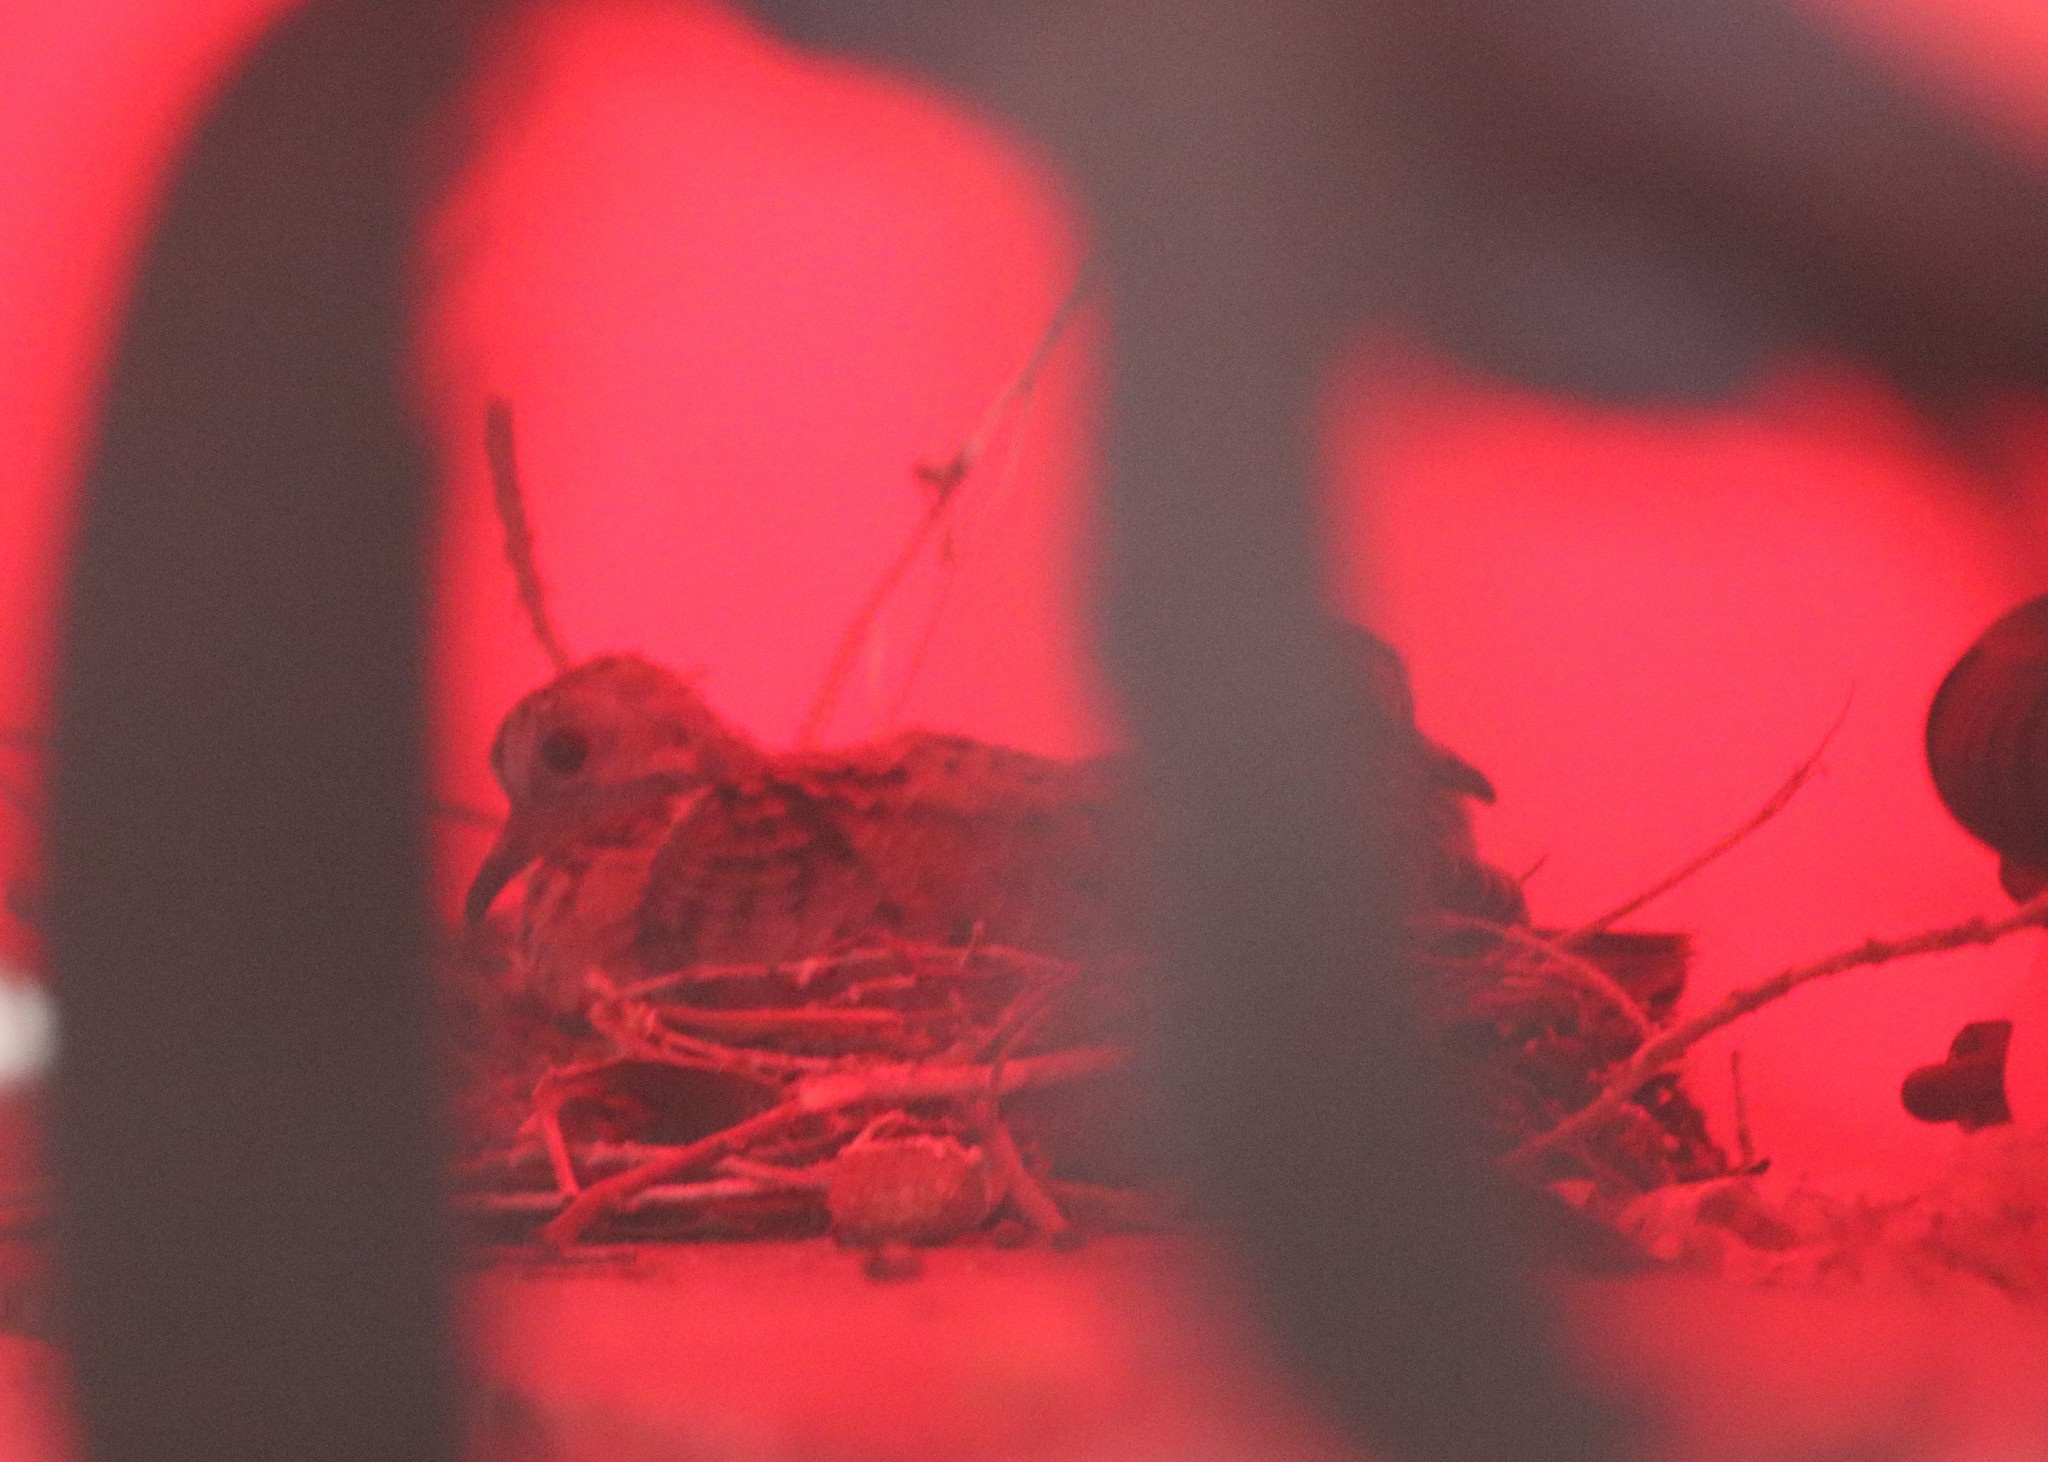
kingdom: Animalia
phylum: Chordata
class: Aves
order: Columbiformes
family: Columbidae
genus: Zenaida
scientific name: Zenaida macroura
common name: Mourning dove
